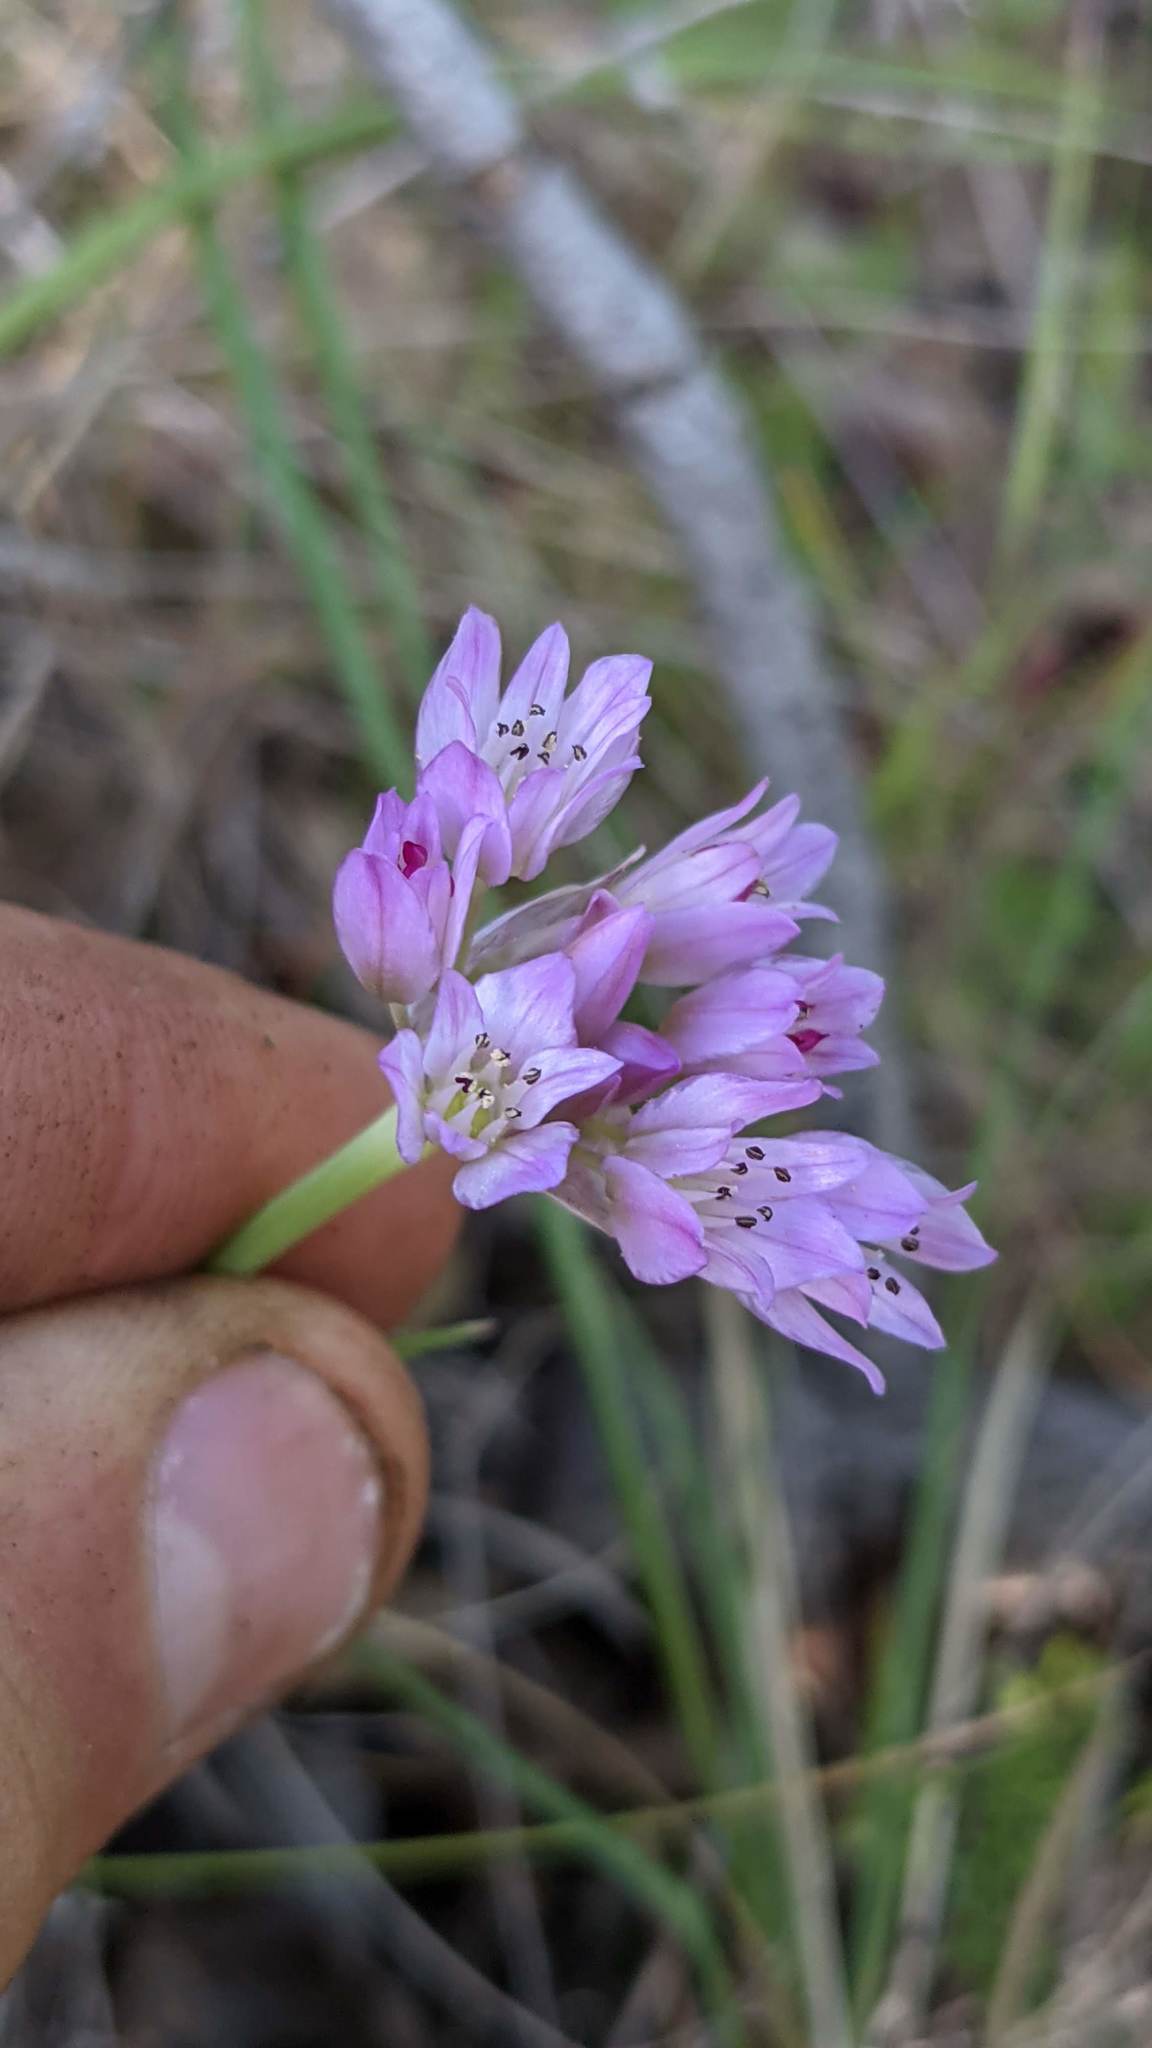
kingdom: Plantae
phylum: Tracheophyta
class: Liliopsida
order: Asparagales
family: Amaryllidaceae
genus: Allium
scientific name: Allium serra
